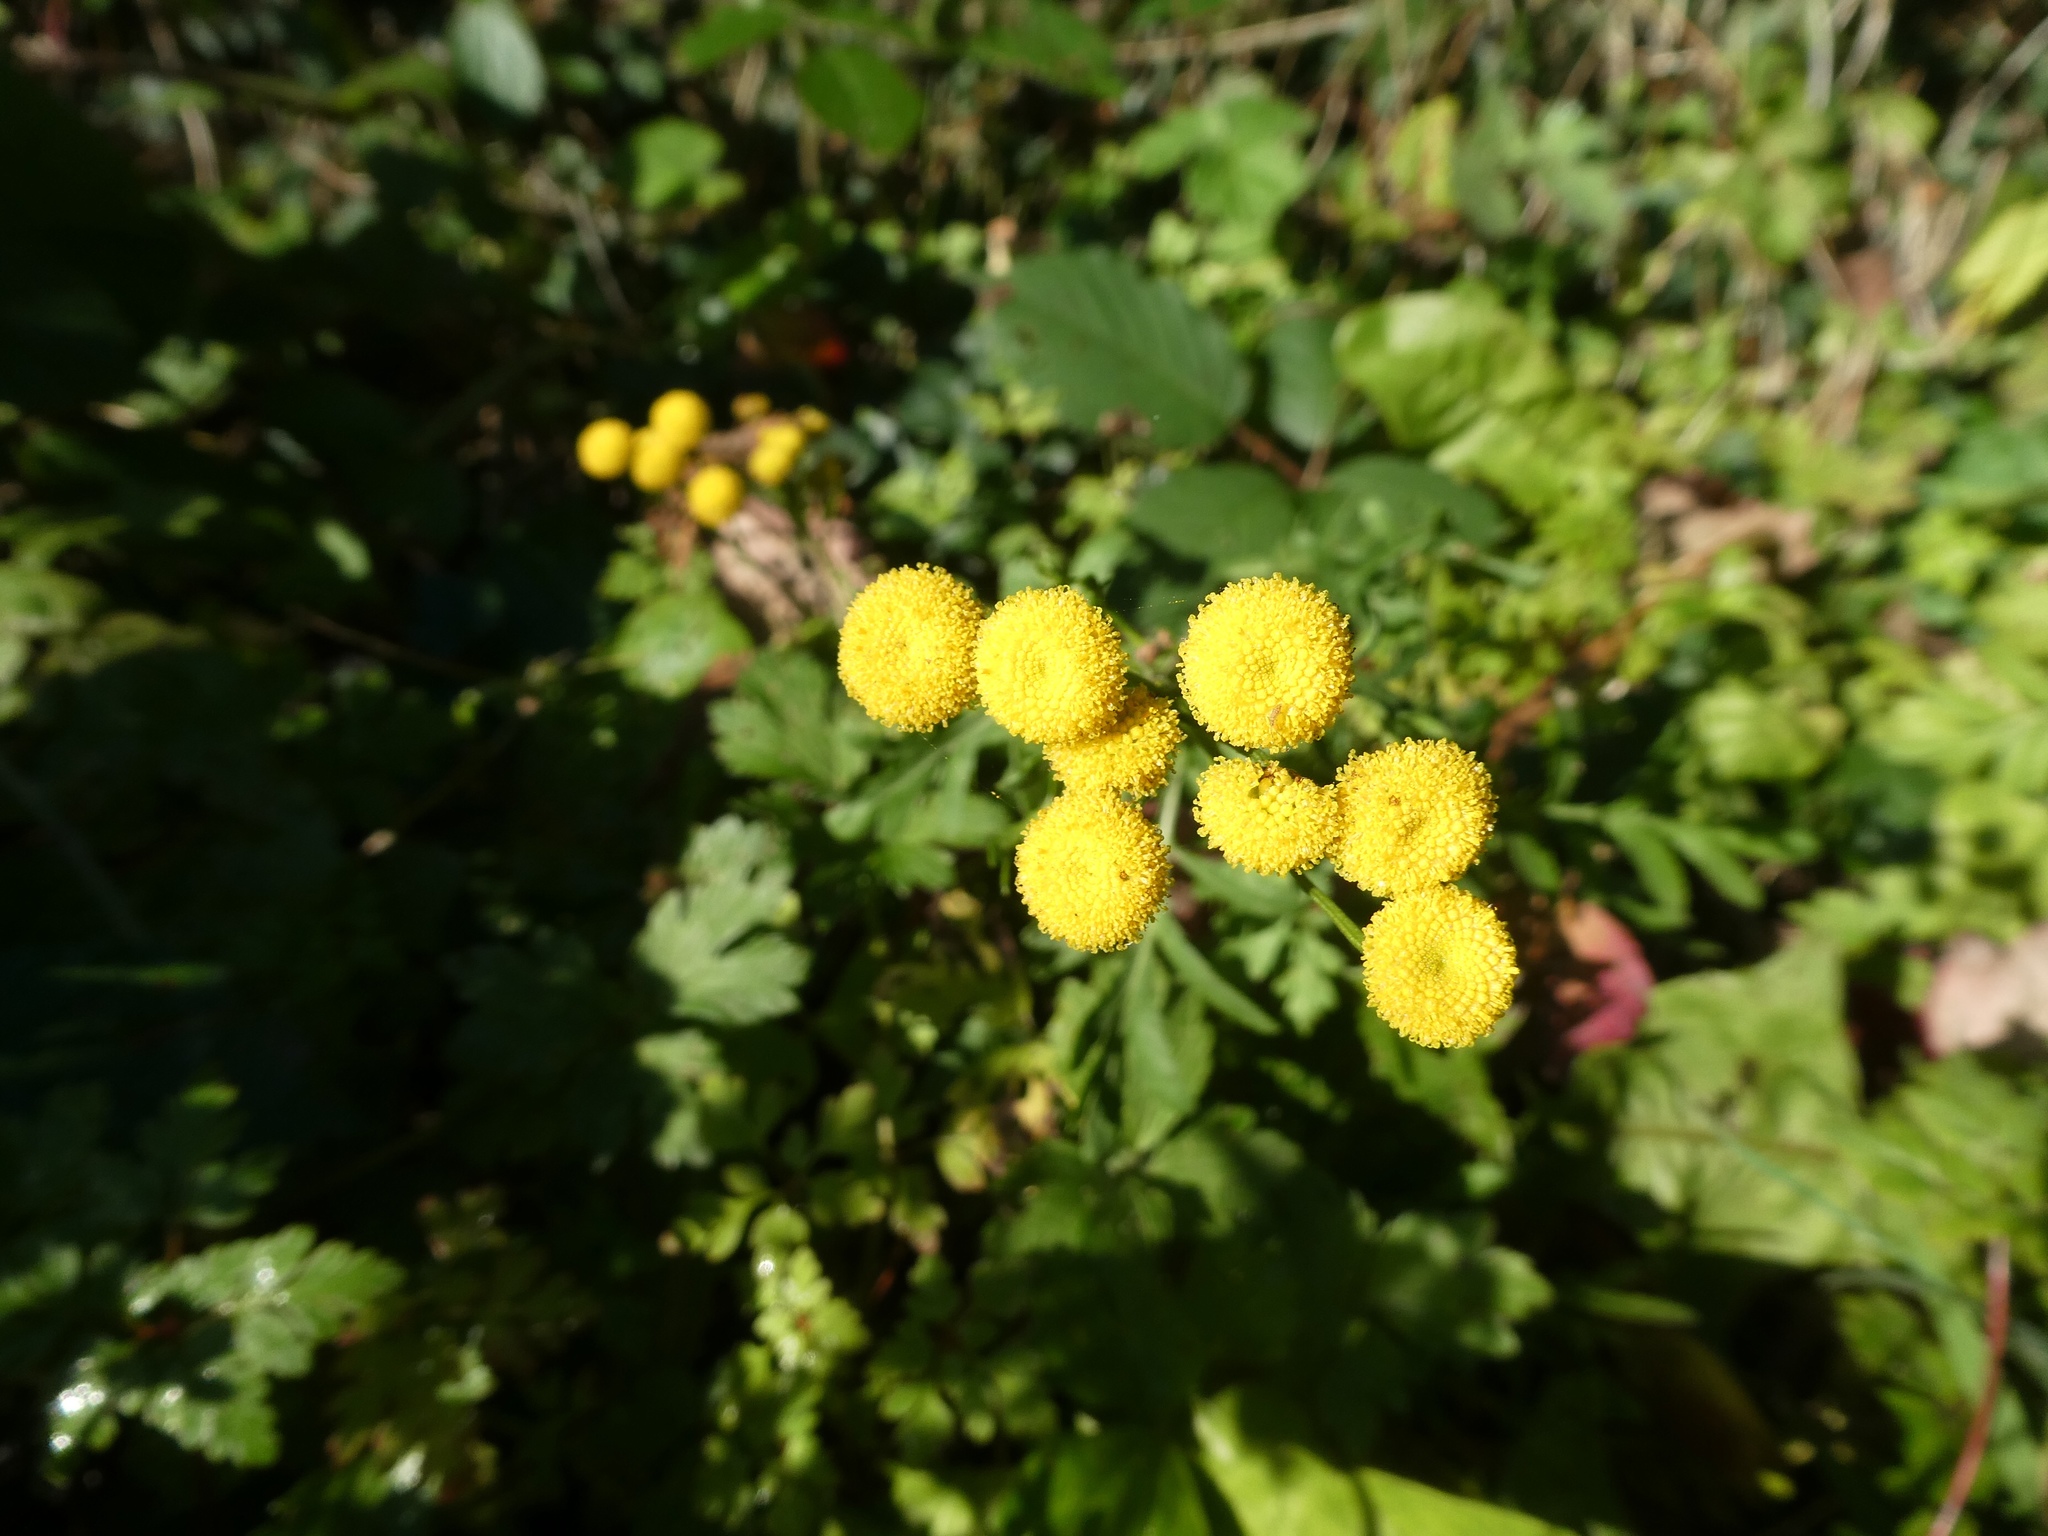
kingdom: Plantae
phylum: Tracheophyta
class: Magnoliopsida
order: Asterales
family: Asteraceae
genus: Tanacetum
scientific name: Tanacetum vulgare
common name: Common tansy
